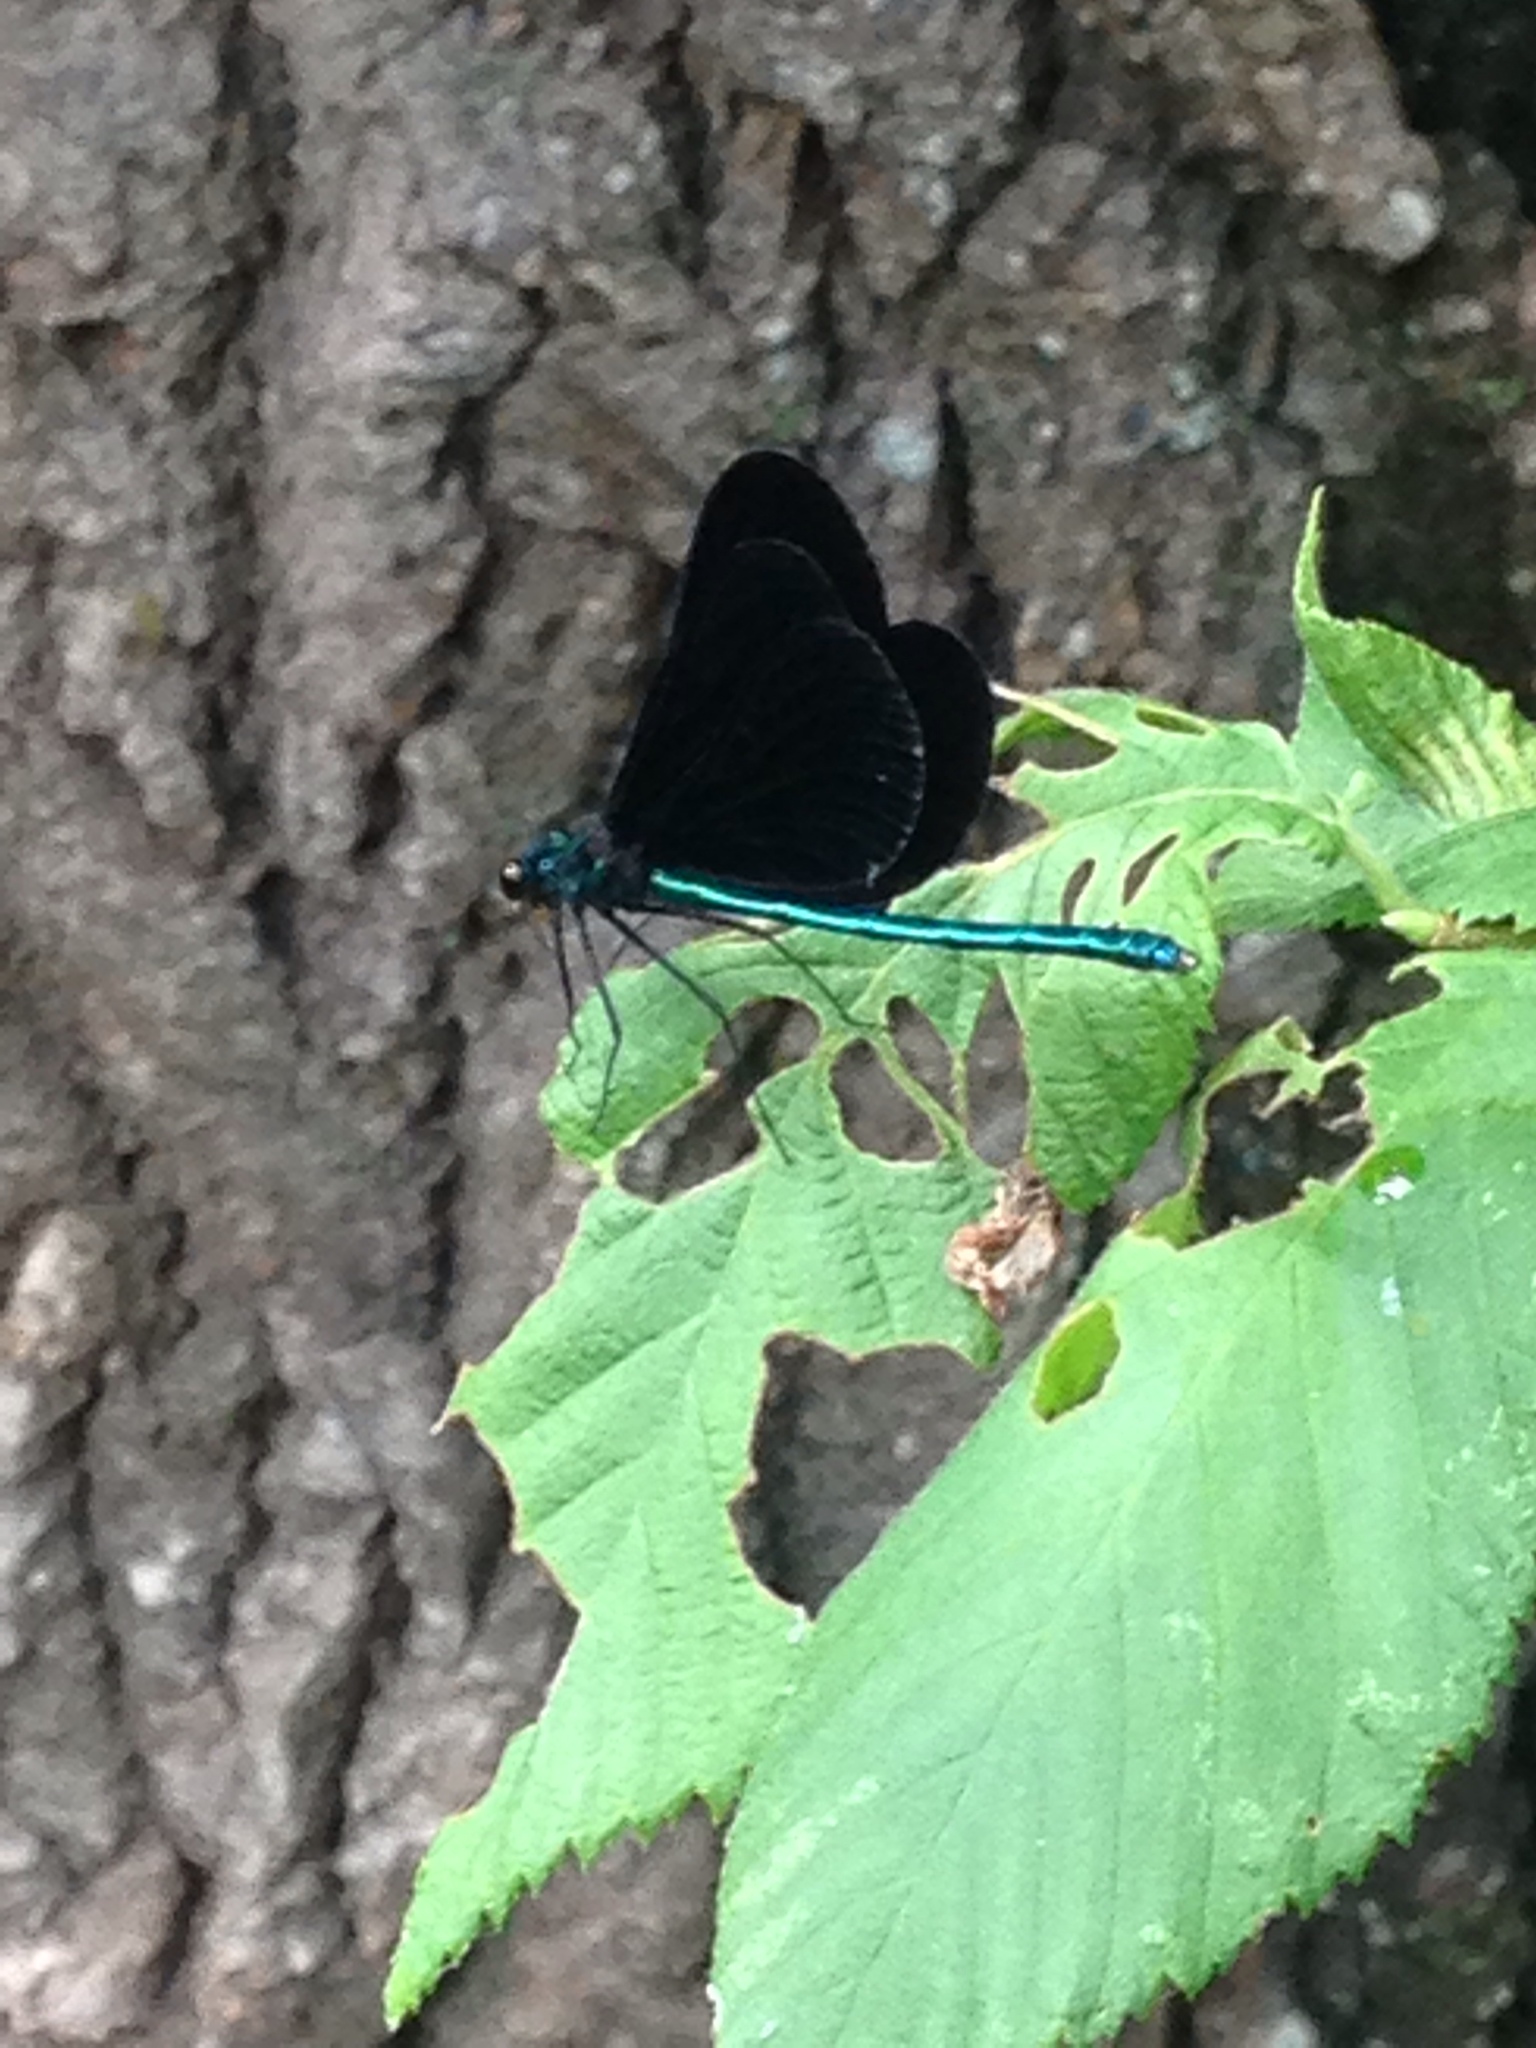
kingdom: Animalia
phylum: Arthropoda
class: Insecta
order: Odonata
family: Calopterygidae
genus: Calopteryx
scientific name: Calopteryx maculata
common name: Ebony jewelwing
